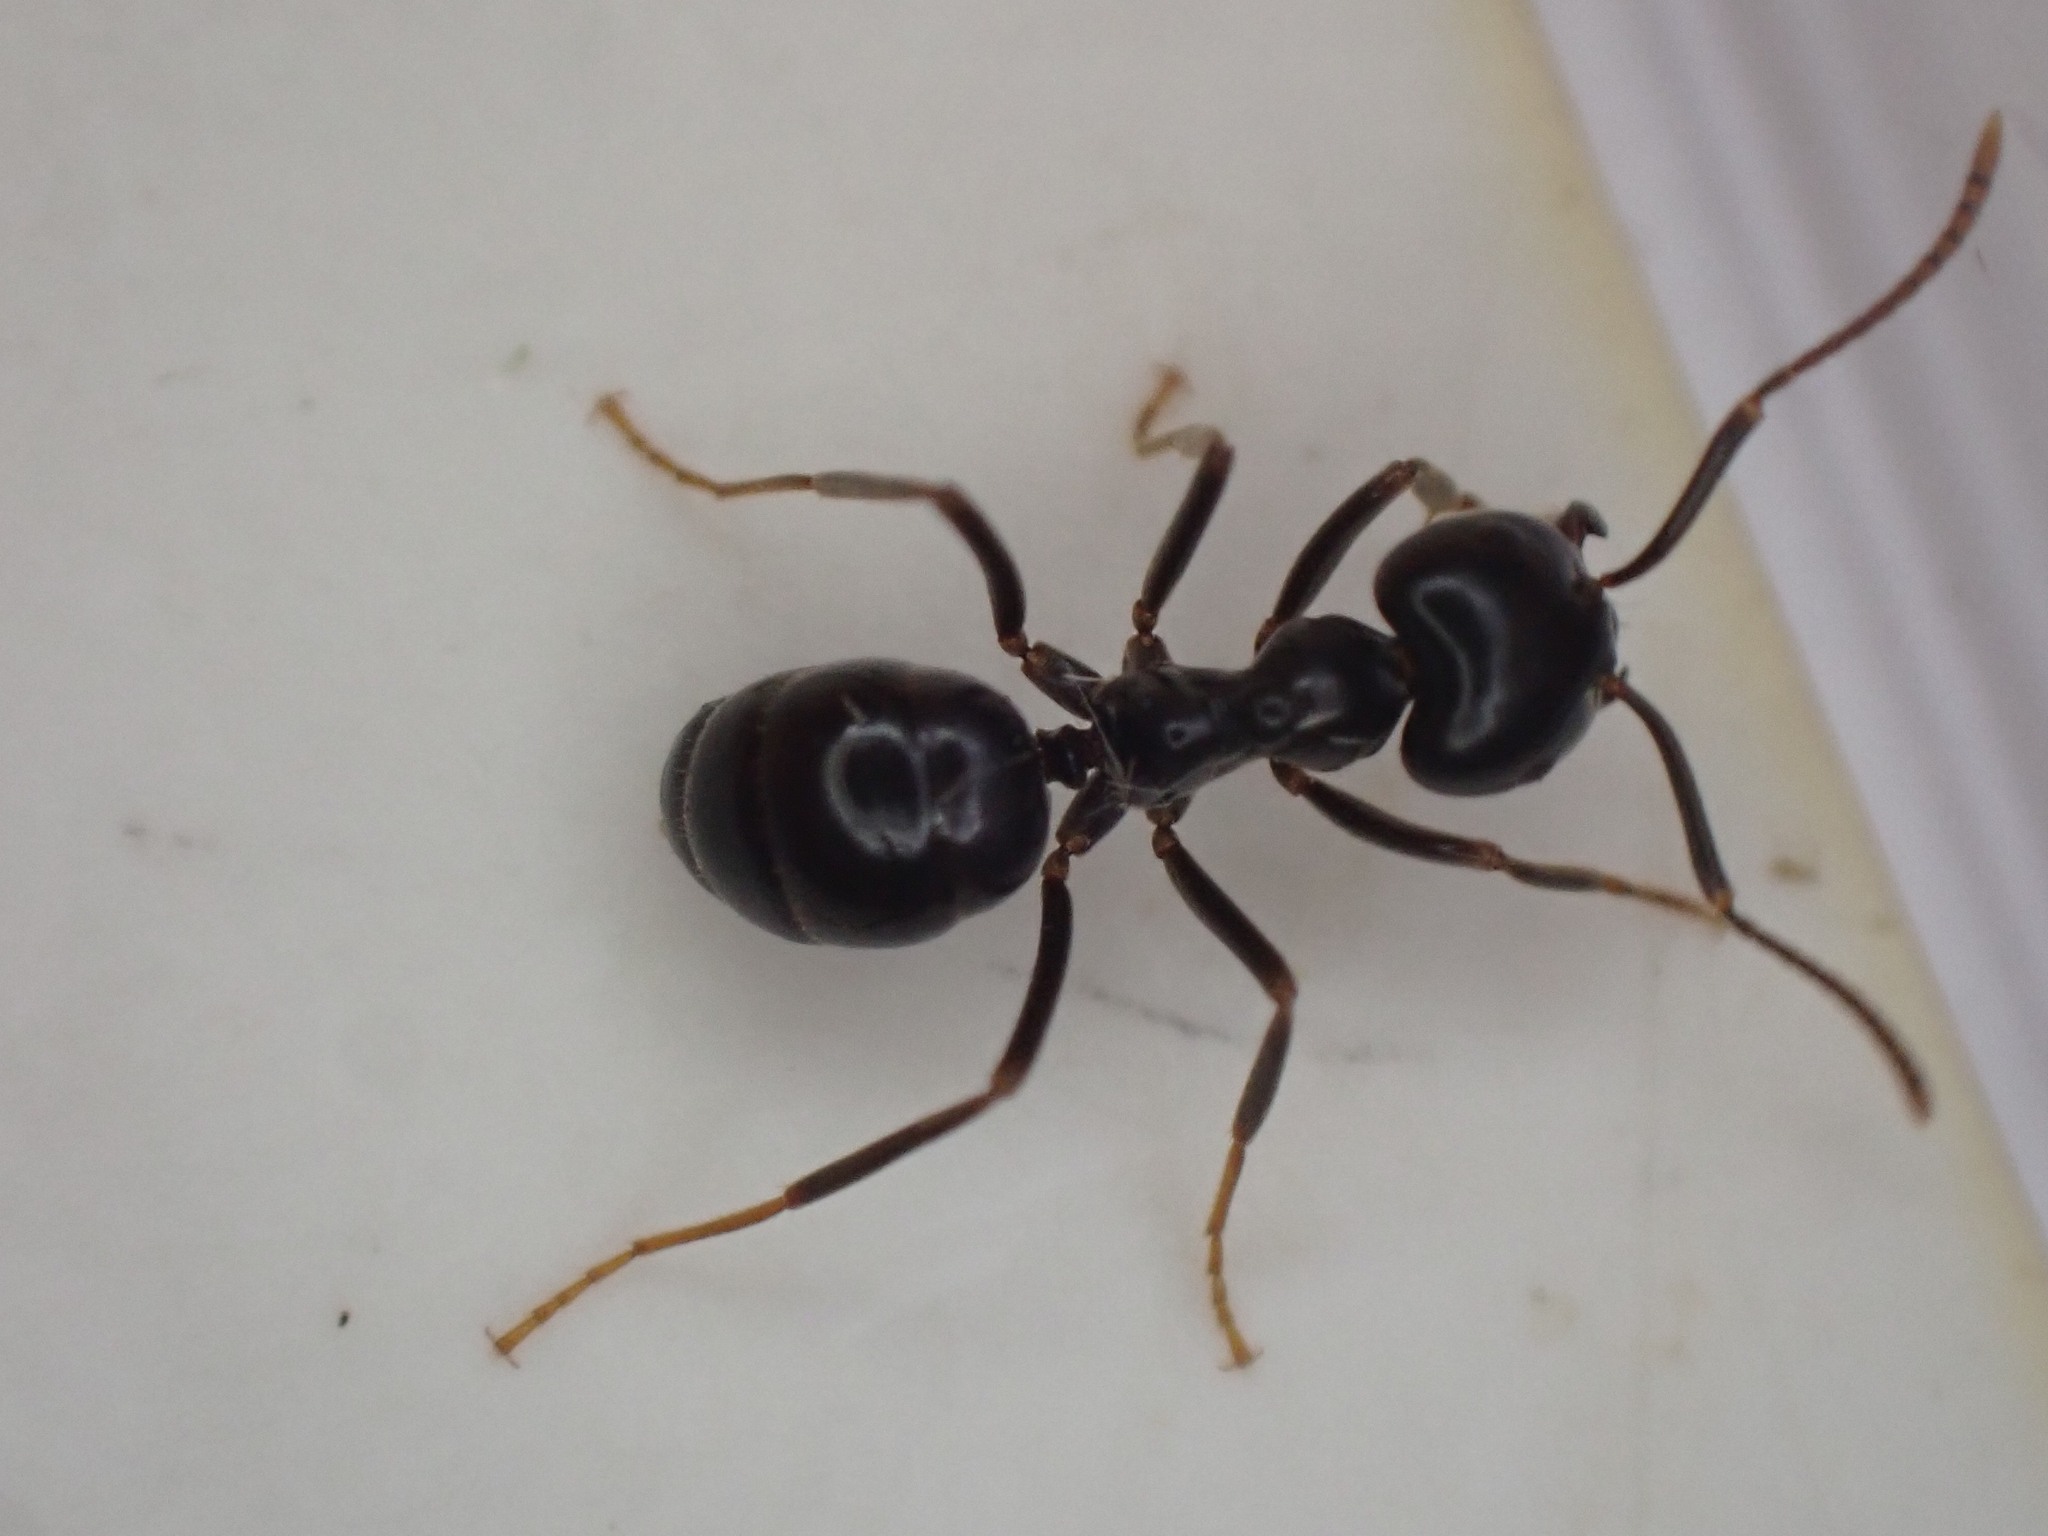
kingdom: Animalia
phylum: Arthropoda
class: Insecta
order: Hymenoptera
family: Formicidae
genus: Lasius
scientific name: Lasius fuliginosus
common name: Jet ant
